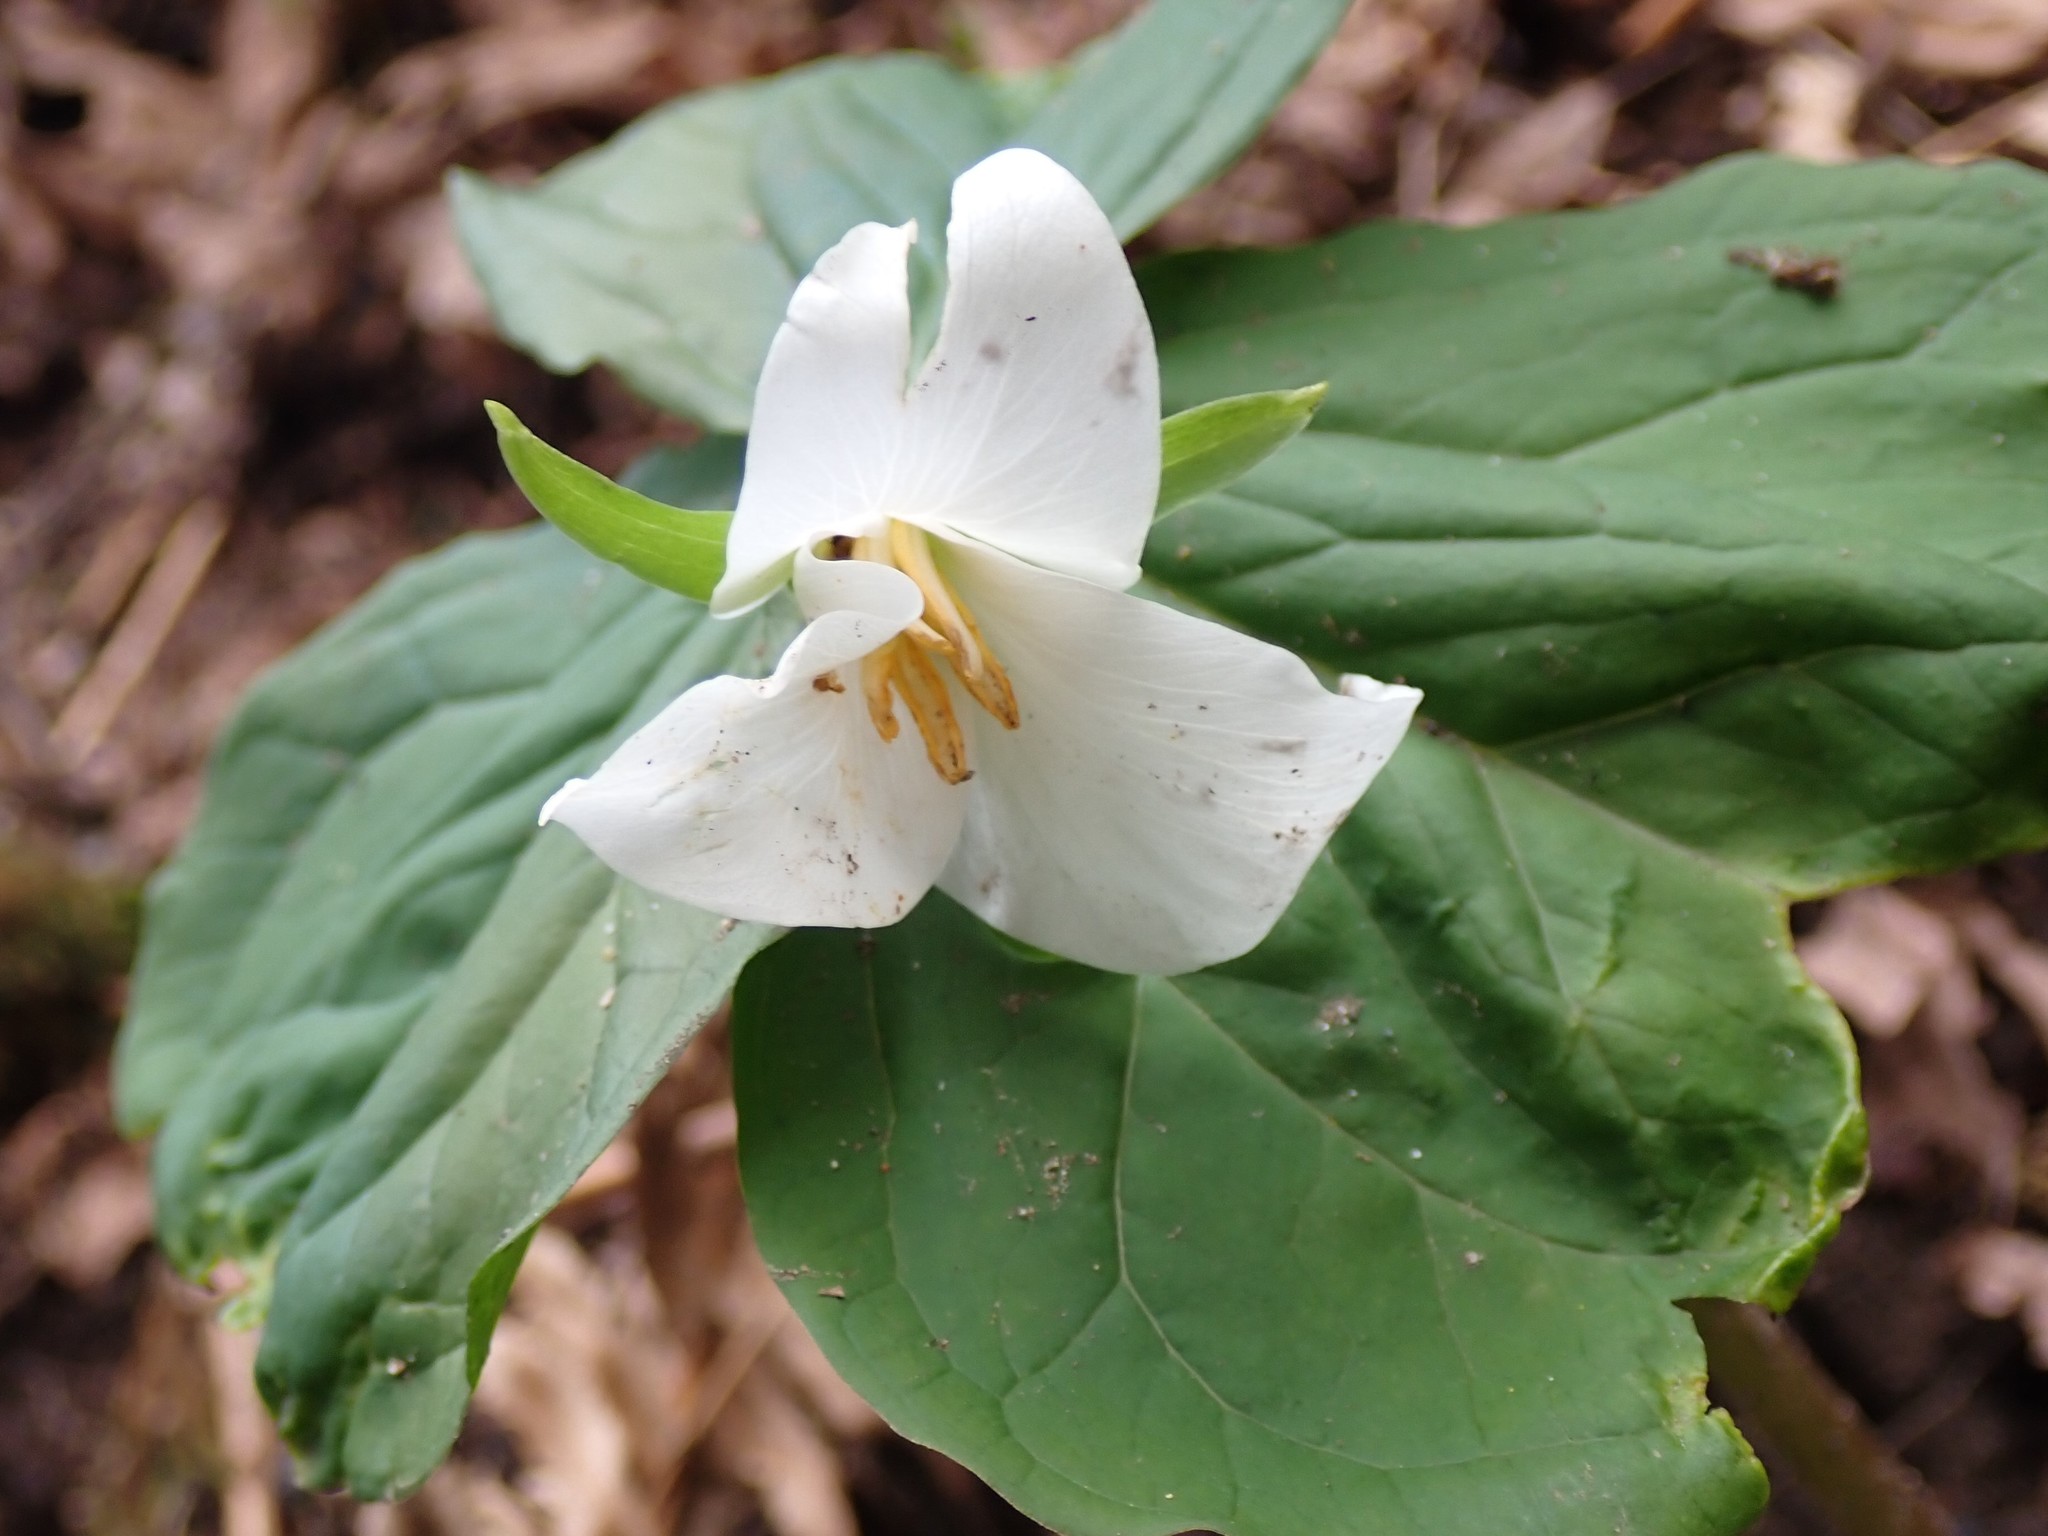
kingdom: Plantae
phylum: Tracheophyta
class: Liliopsida
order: Liliales
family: Melanthiaceae
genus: Trillium
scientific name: Trillium ovatum
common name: Pacific trillium
